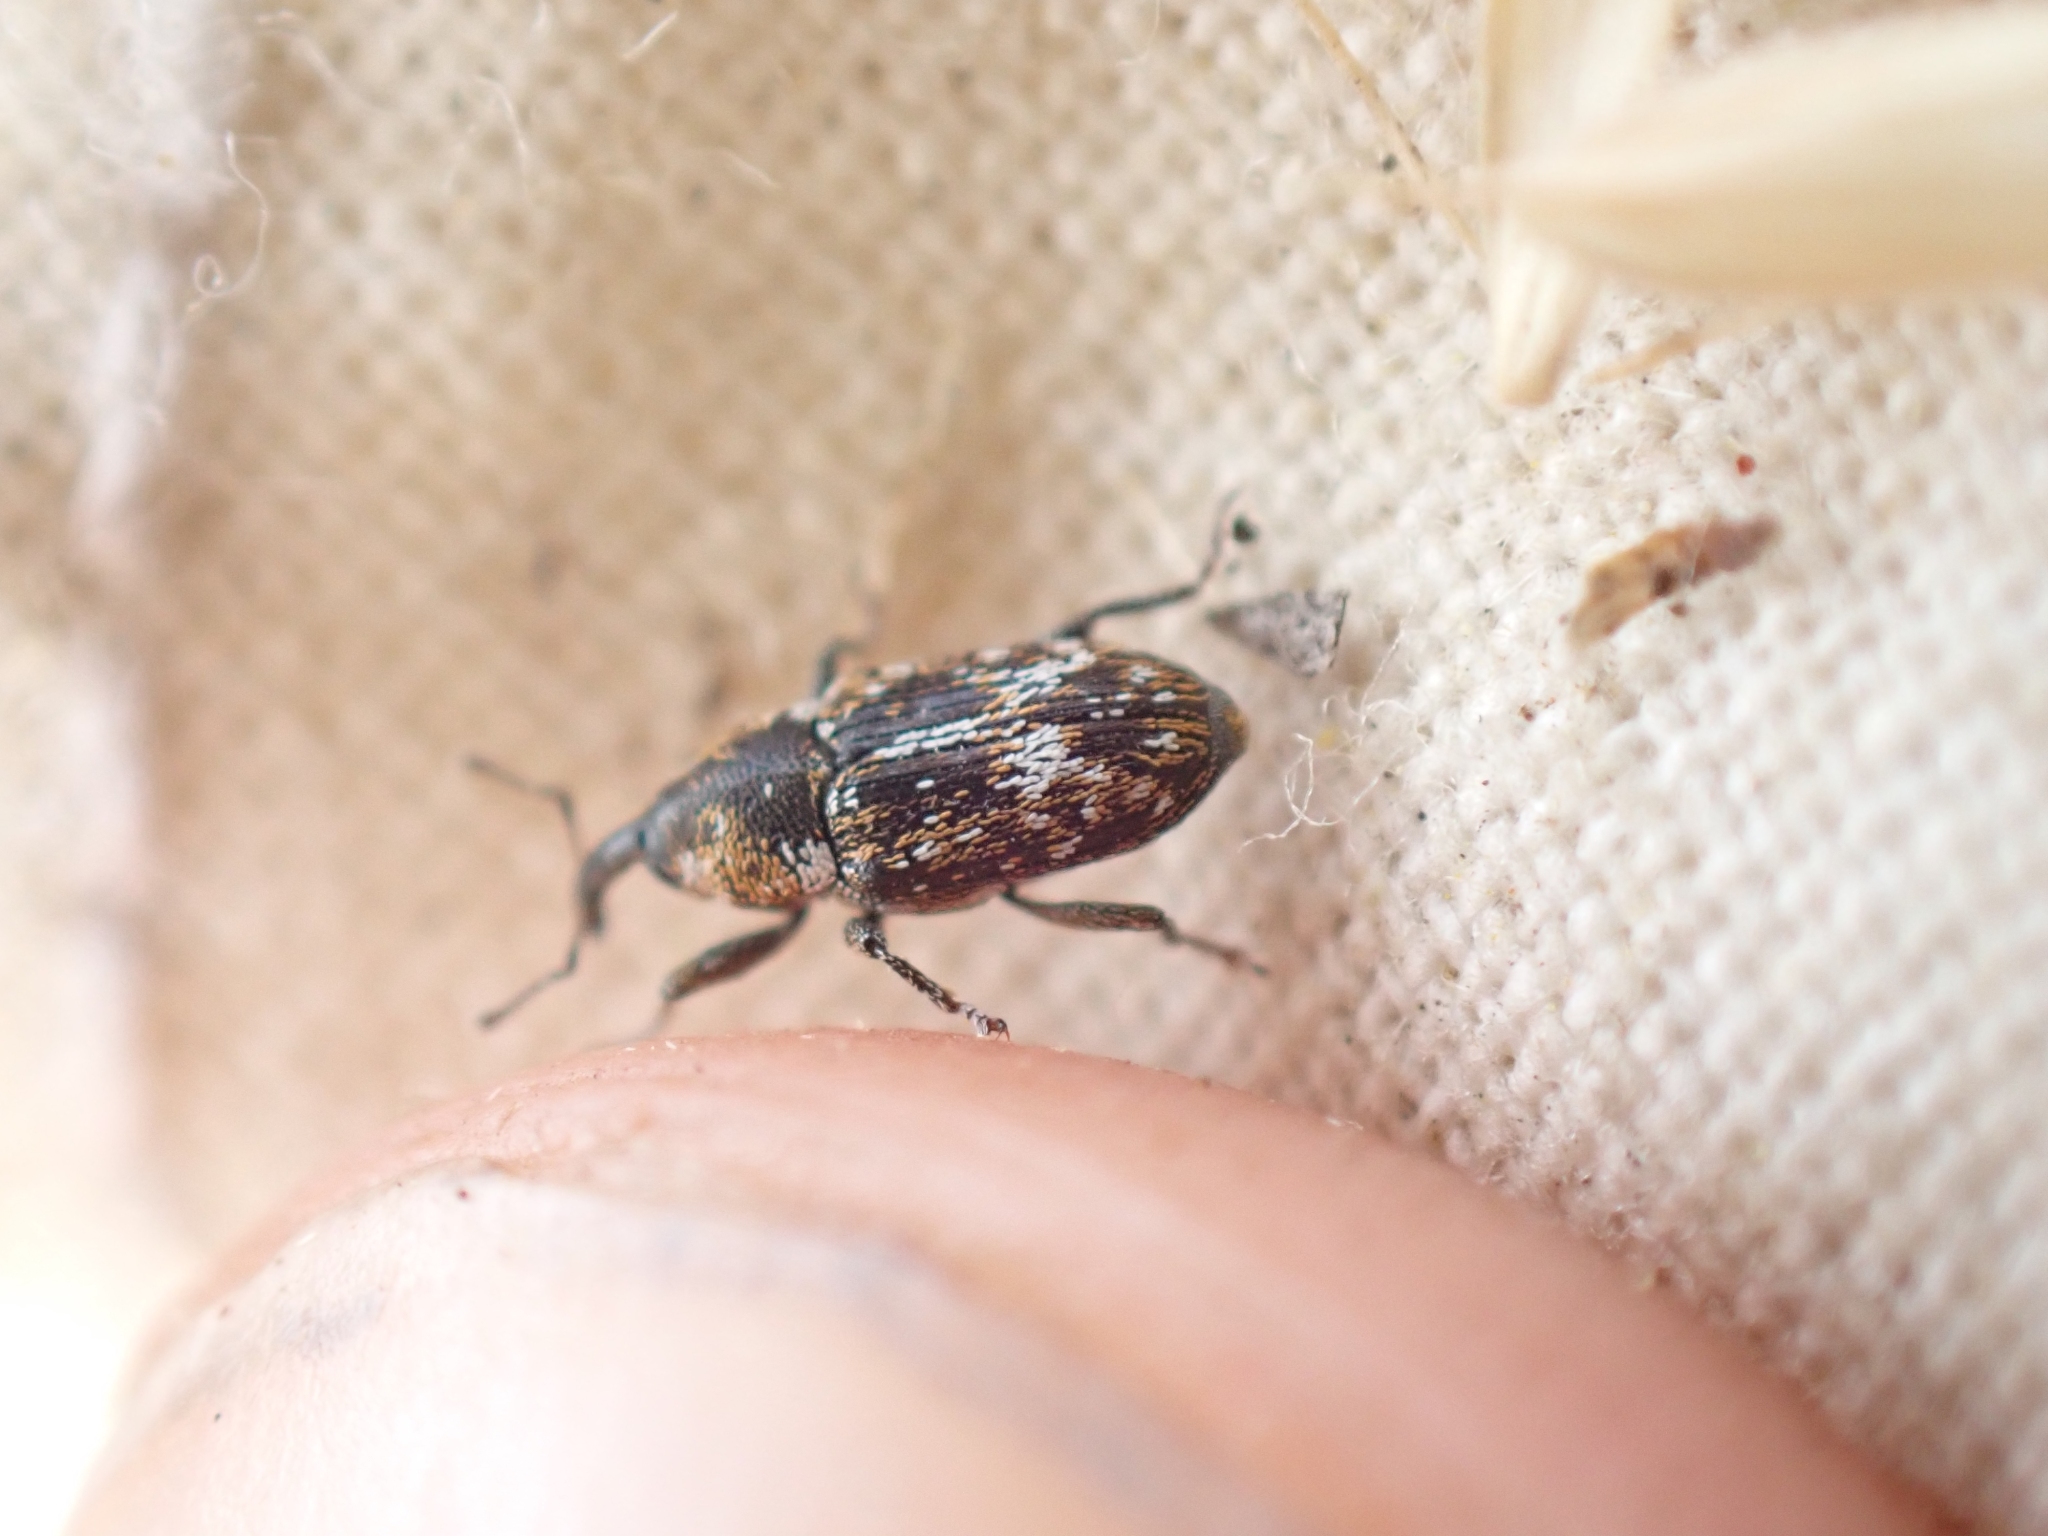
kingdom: Animalia
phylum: Arthropoda
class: Insecta
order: Coleoptera
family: Curculionidae
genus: Cosmobaris
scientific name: Cosmobaris scolopacea
